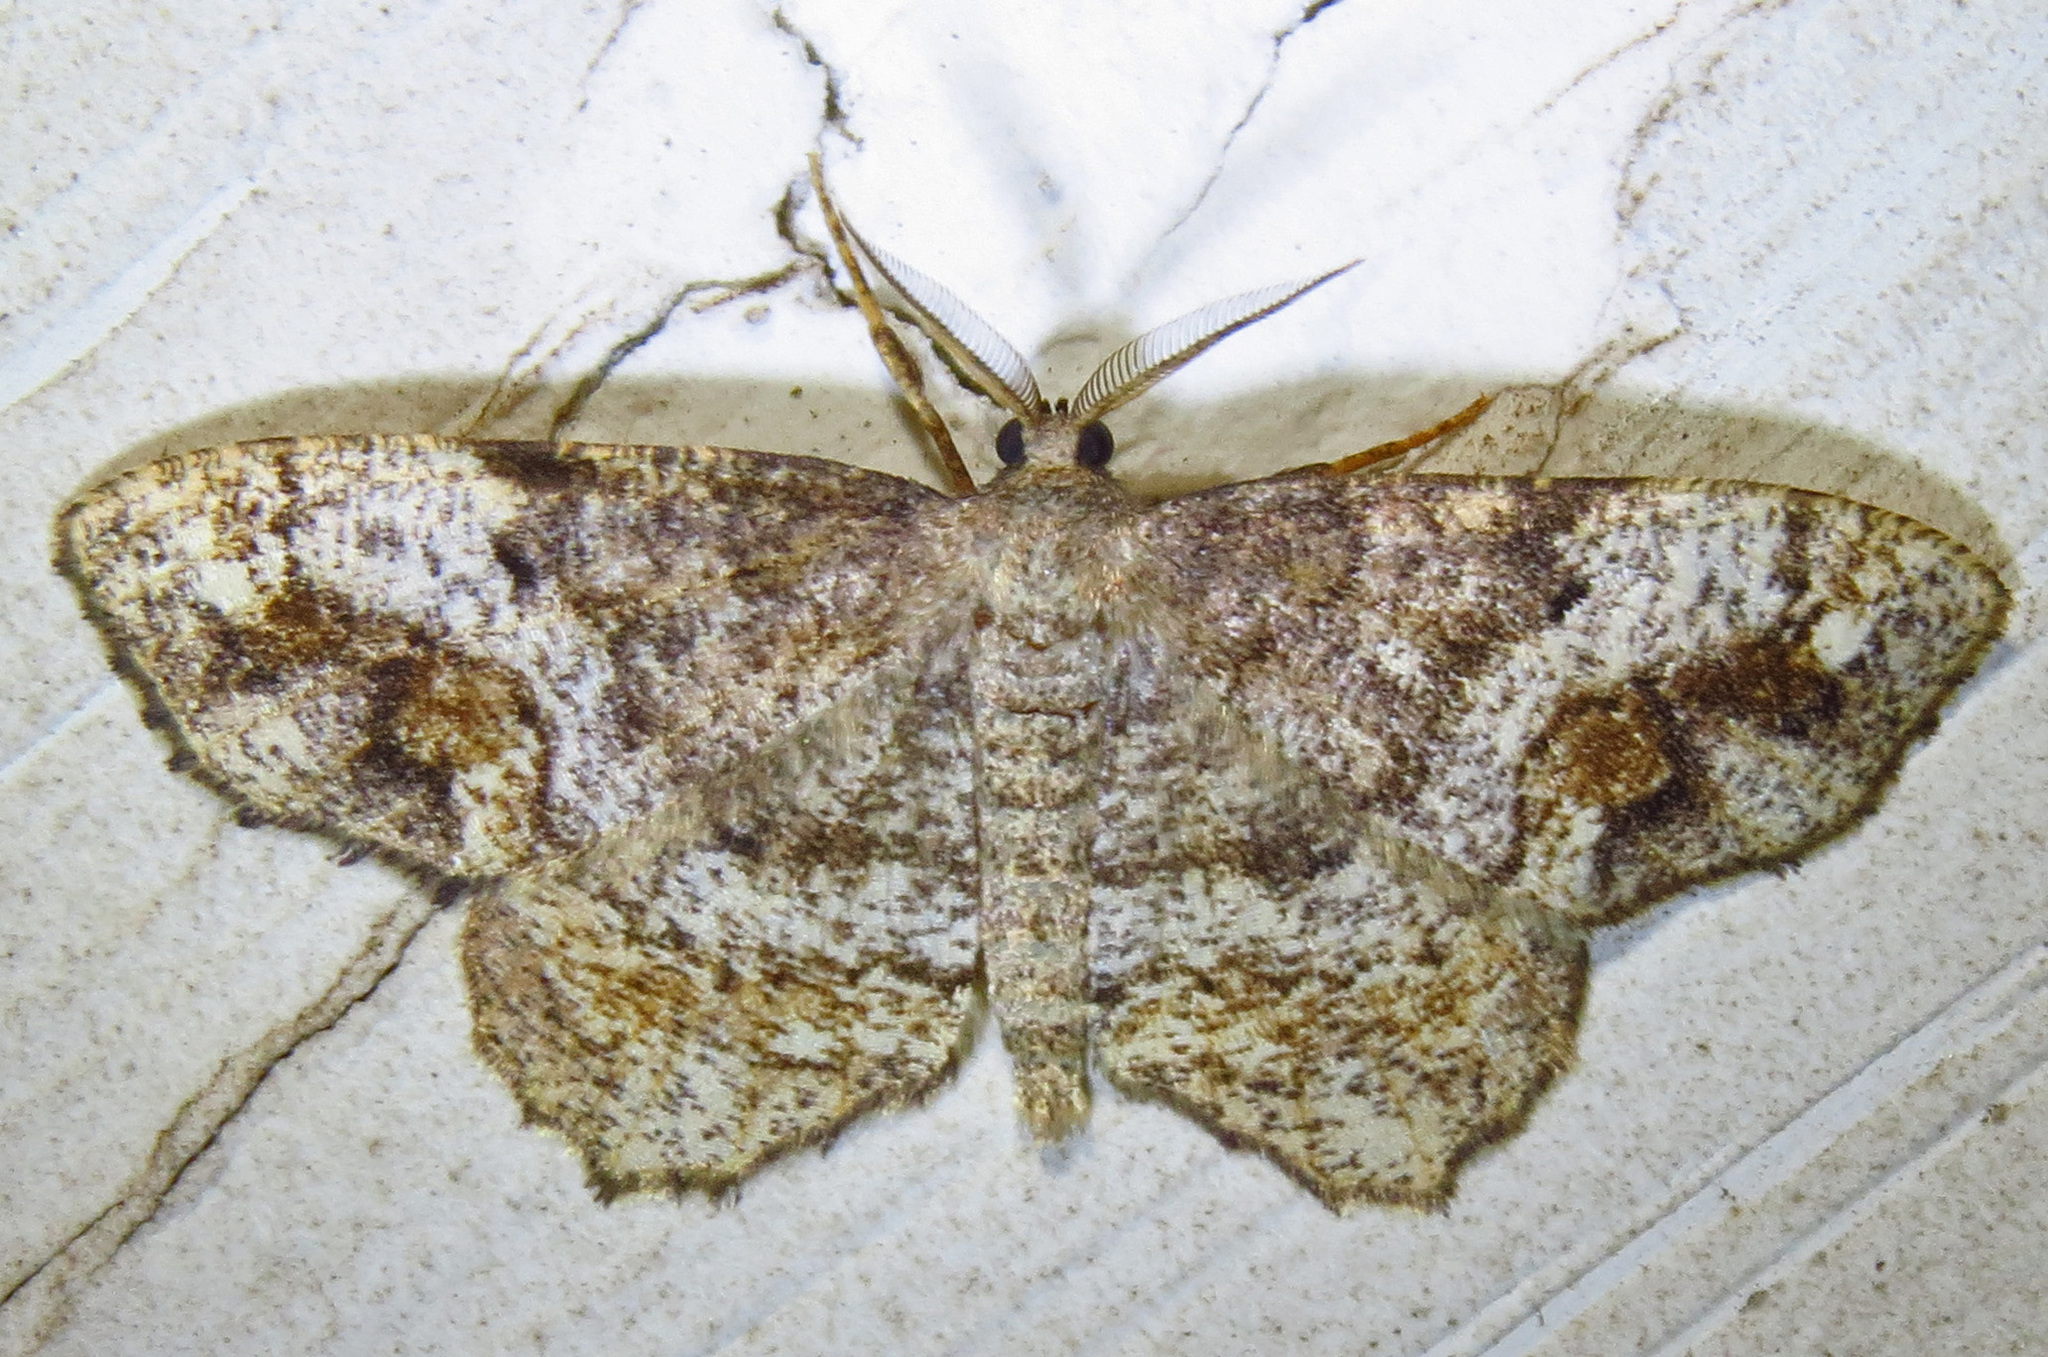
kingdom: Animalia
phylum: Arthropoda
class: Insecta
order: Lepidoptera
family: Geometridae
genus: Hypagyrtis
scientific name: Hypagyrtis unipunctata
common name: One-spotted variant
